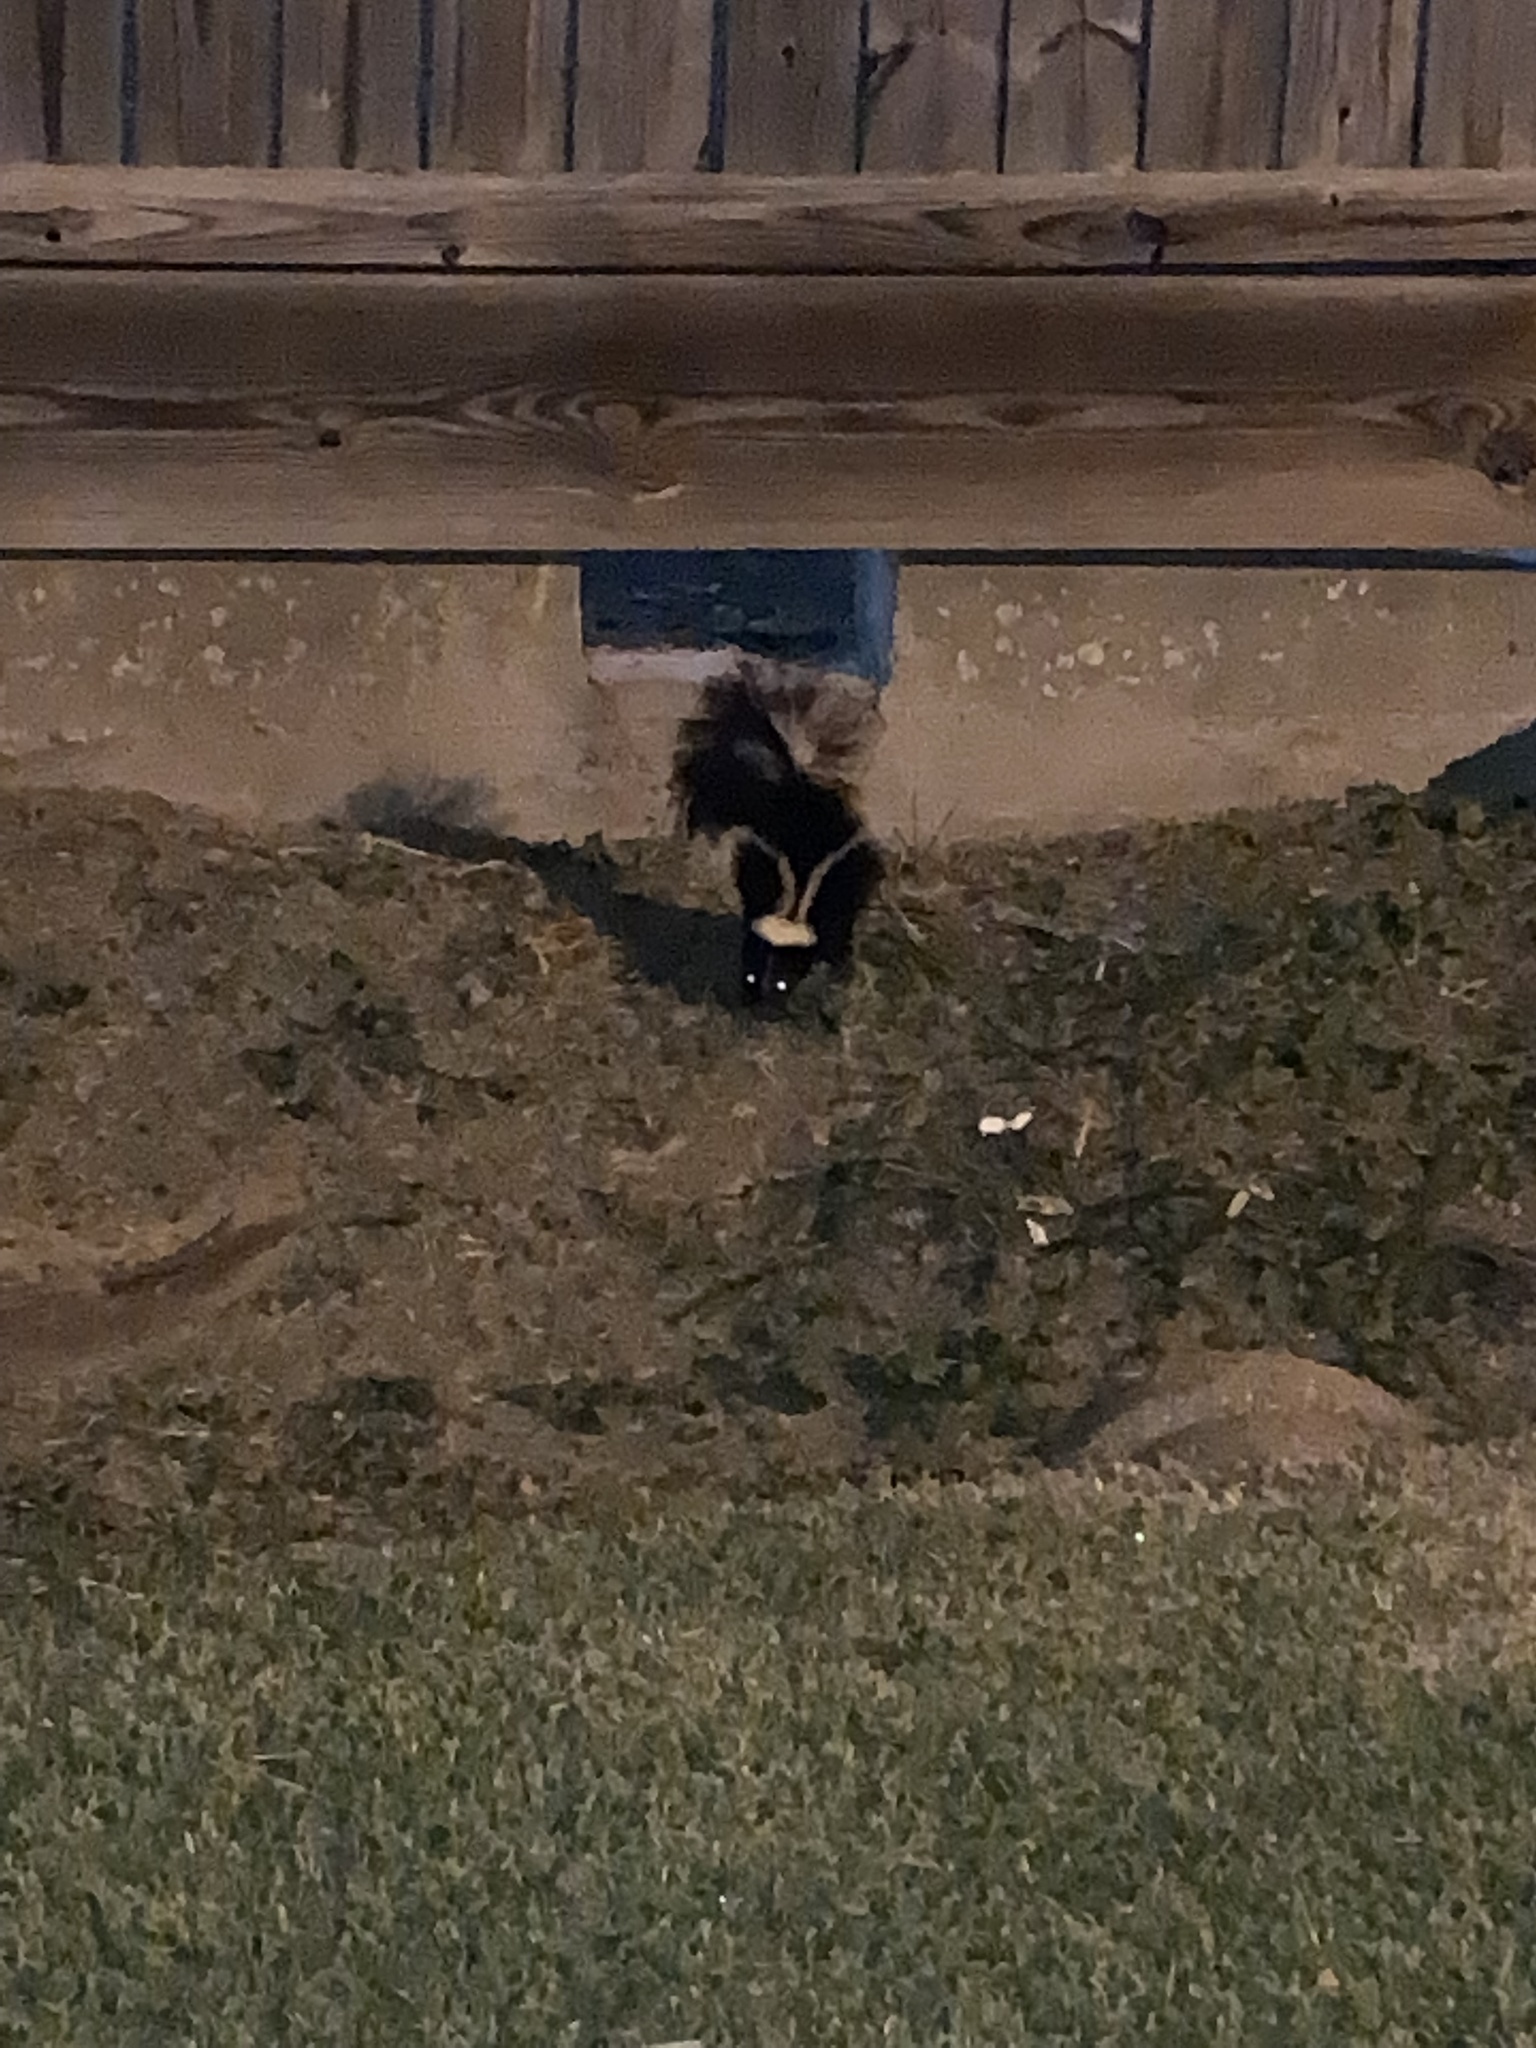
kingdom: Animalia
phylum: Chordata
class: Mammalia
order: Carnivora
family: Mephitidae
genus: Mephitis
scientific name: Mephitis mephitis
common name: Striped skunk
